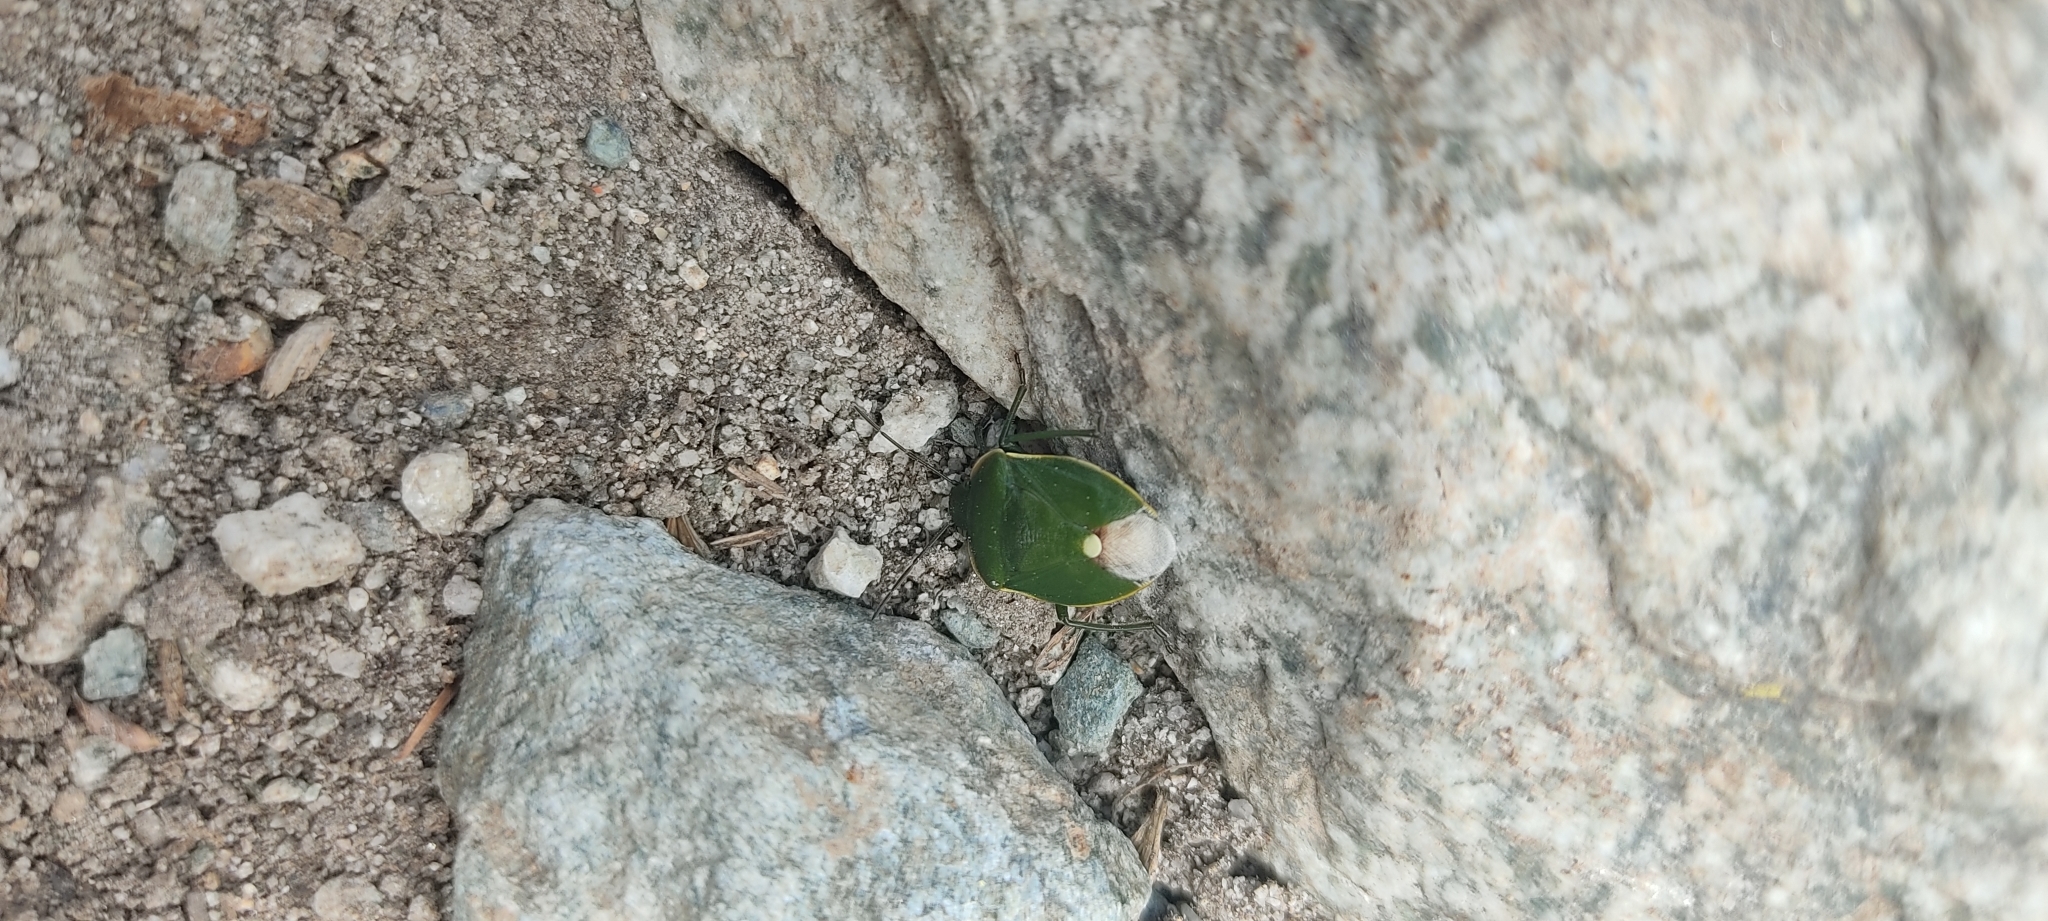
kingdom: Animalia
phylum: Arthropoda
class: Insecta
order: Hemiptera
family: Pentatomidae
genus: Chlorochroa
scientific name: Chlorochroa juniperina
